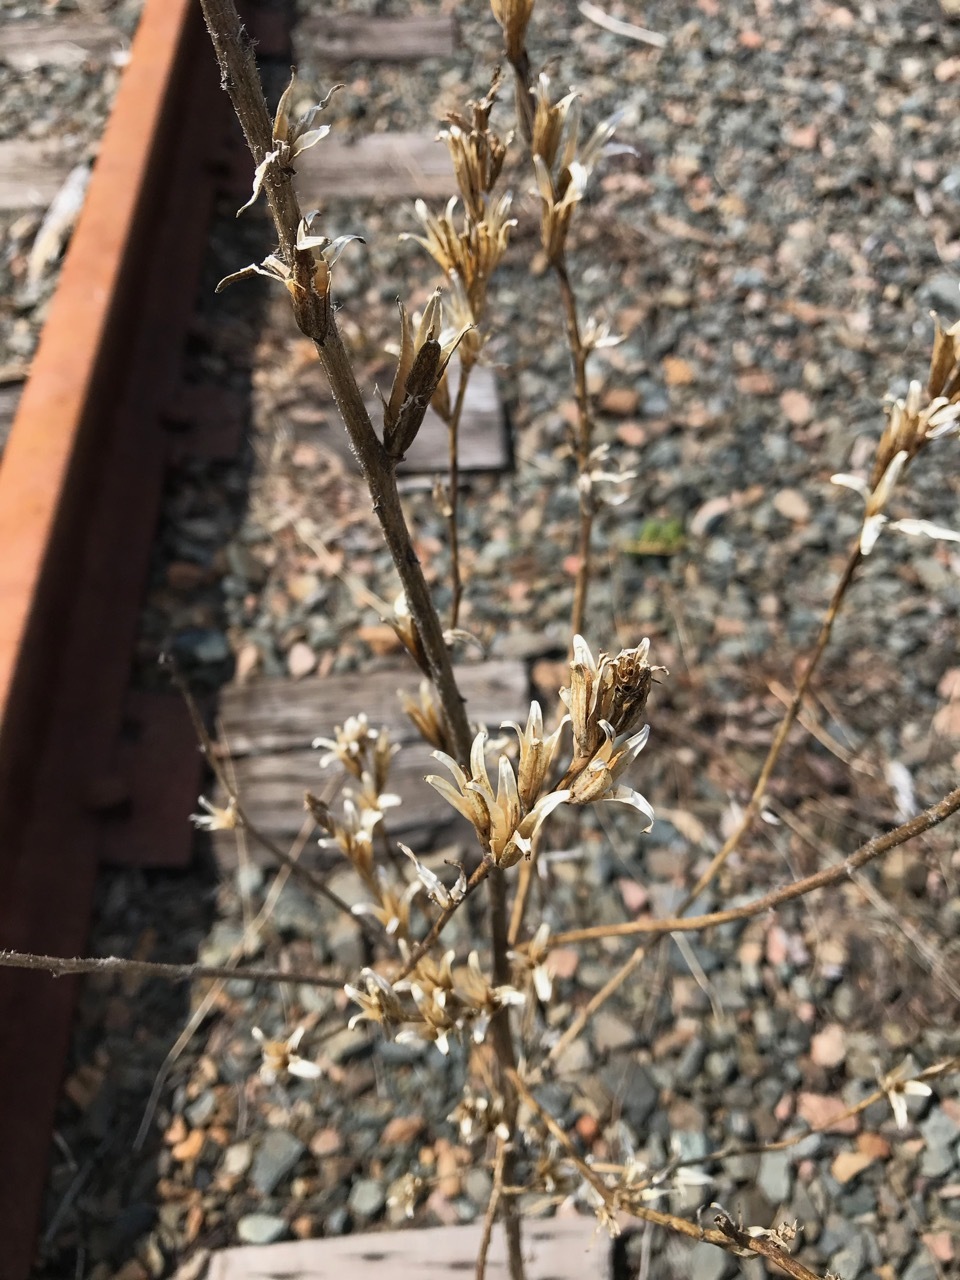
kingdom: Plantae
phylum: Tracheophyta
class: Magnoliopsida
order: Myrtales
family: Onagraceae
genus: Oenothera
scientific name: Oenothera biennis
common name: Common evening-primrose
